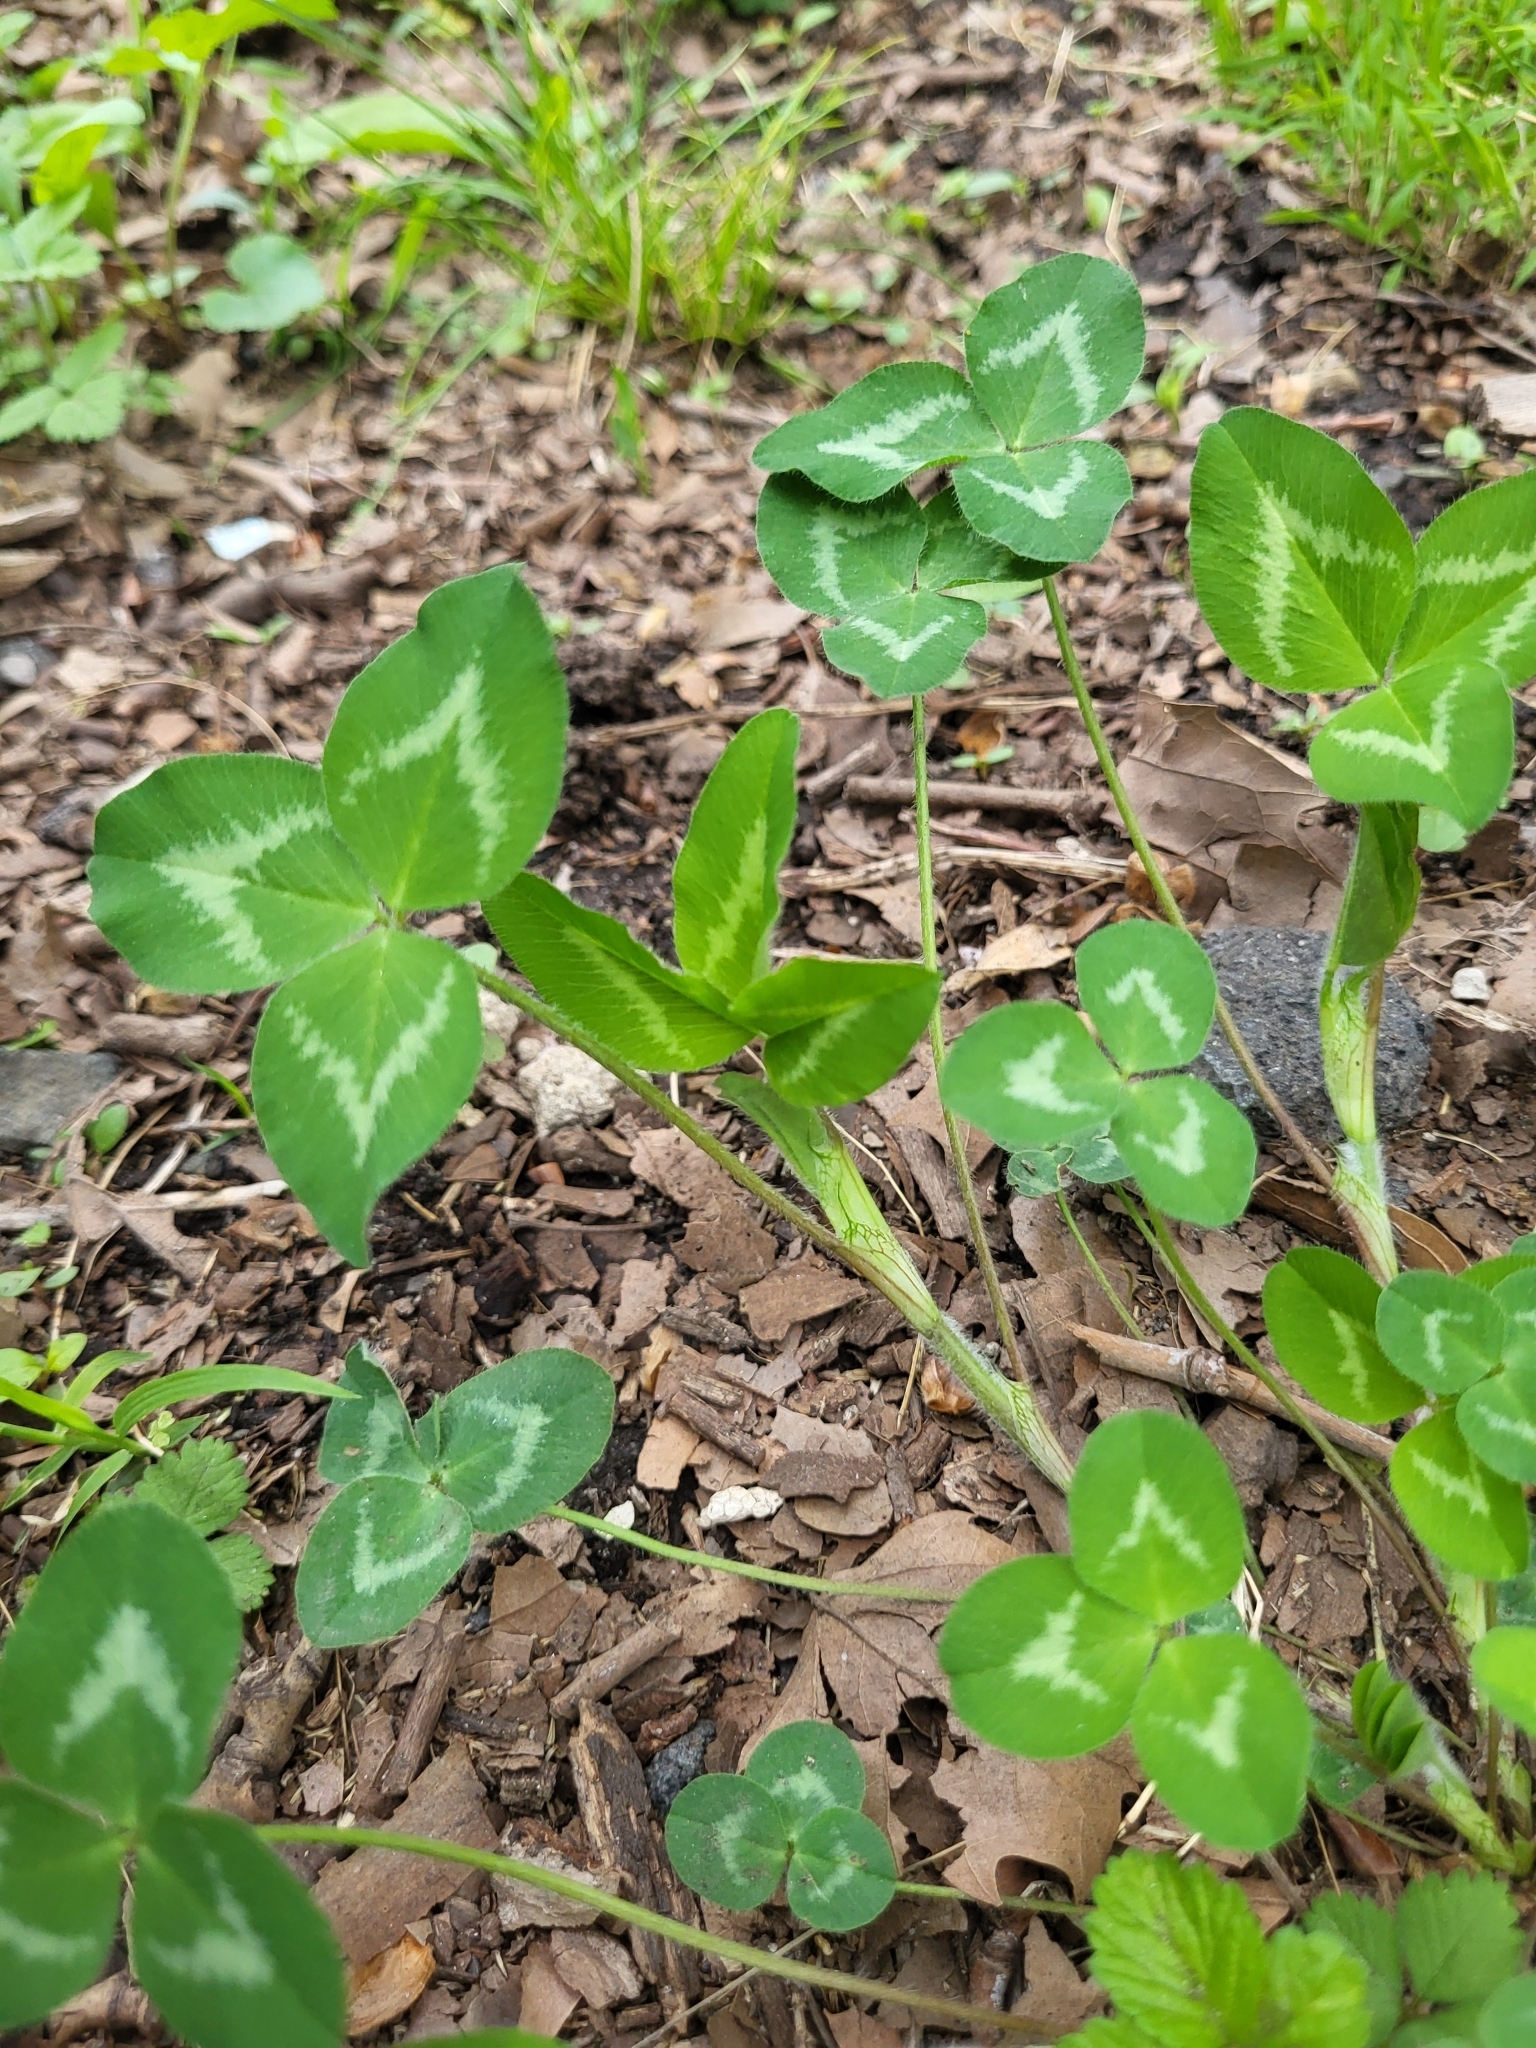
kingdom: Plantae
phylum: Tracheophyta
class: Magnoliopsida
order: Fabales
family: Fabaceae
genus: Trifolium
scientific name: Trifolium pratense
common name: Red clover
